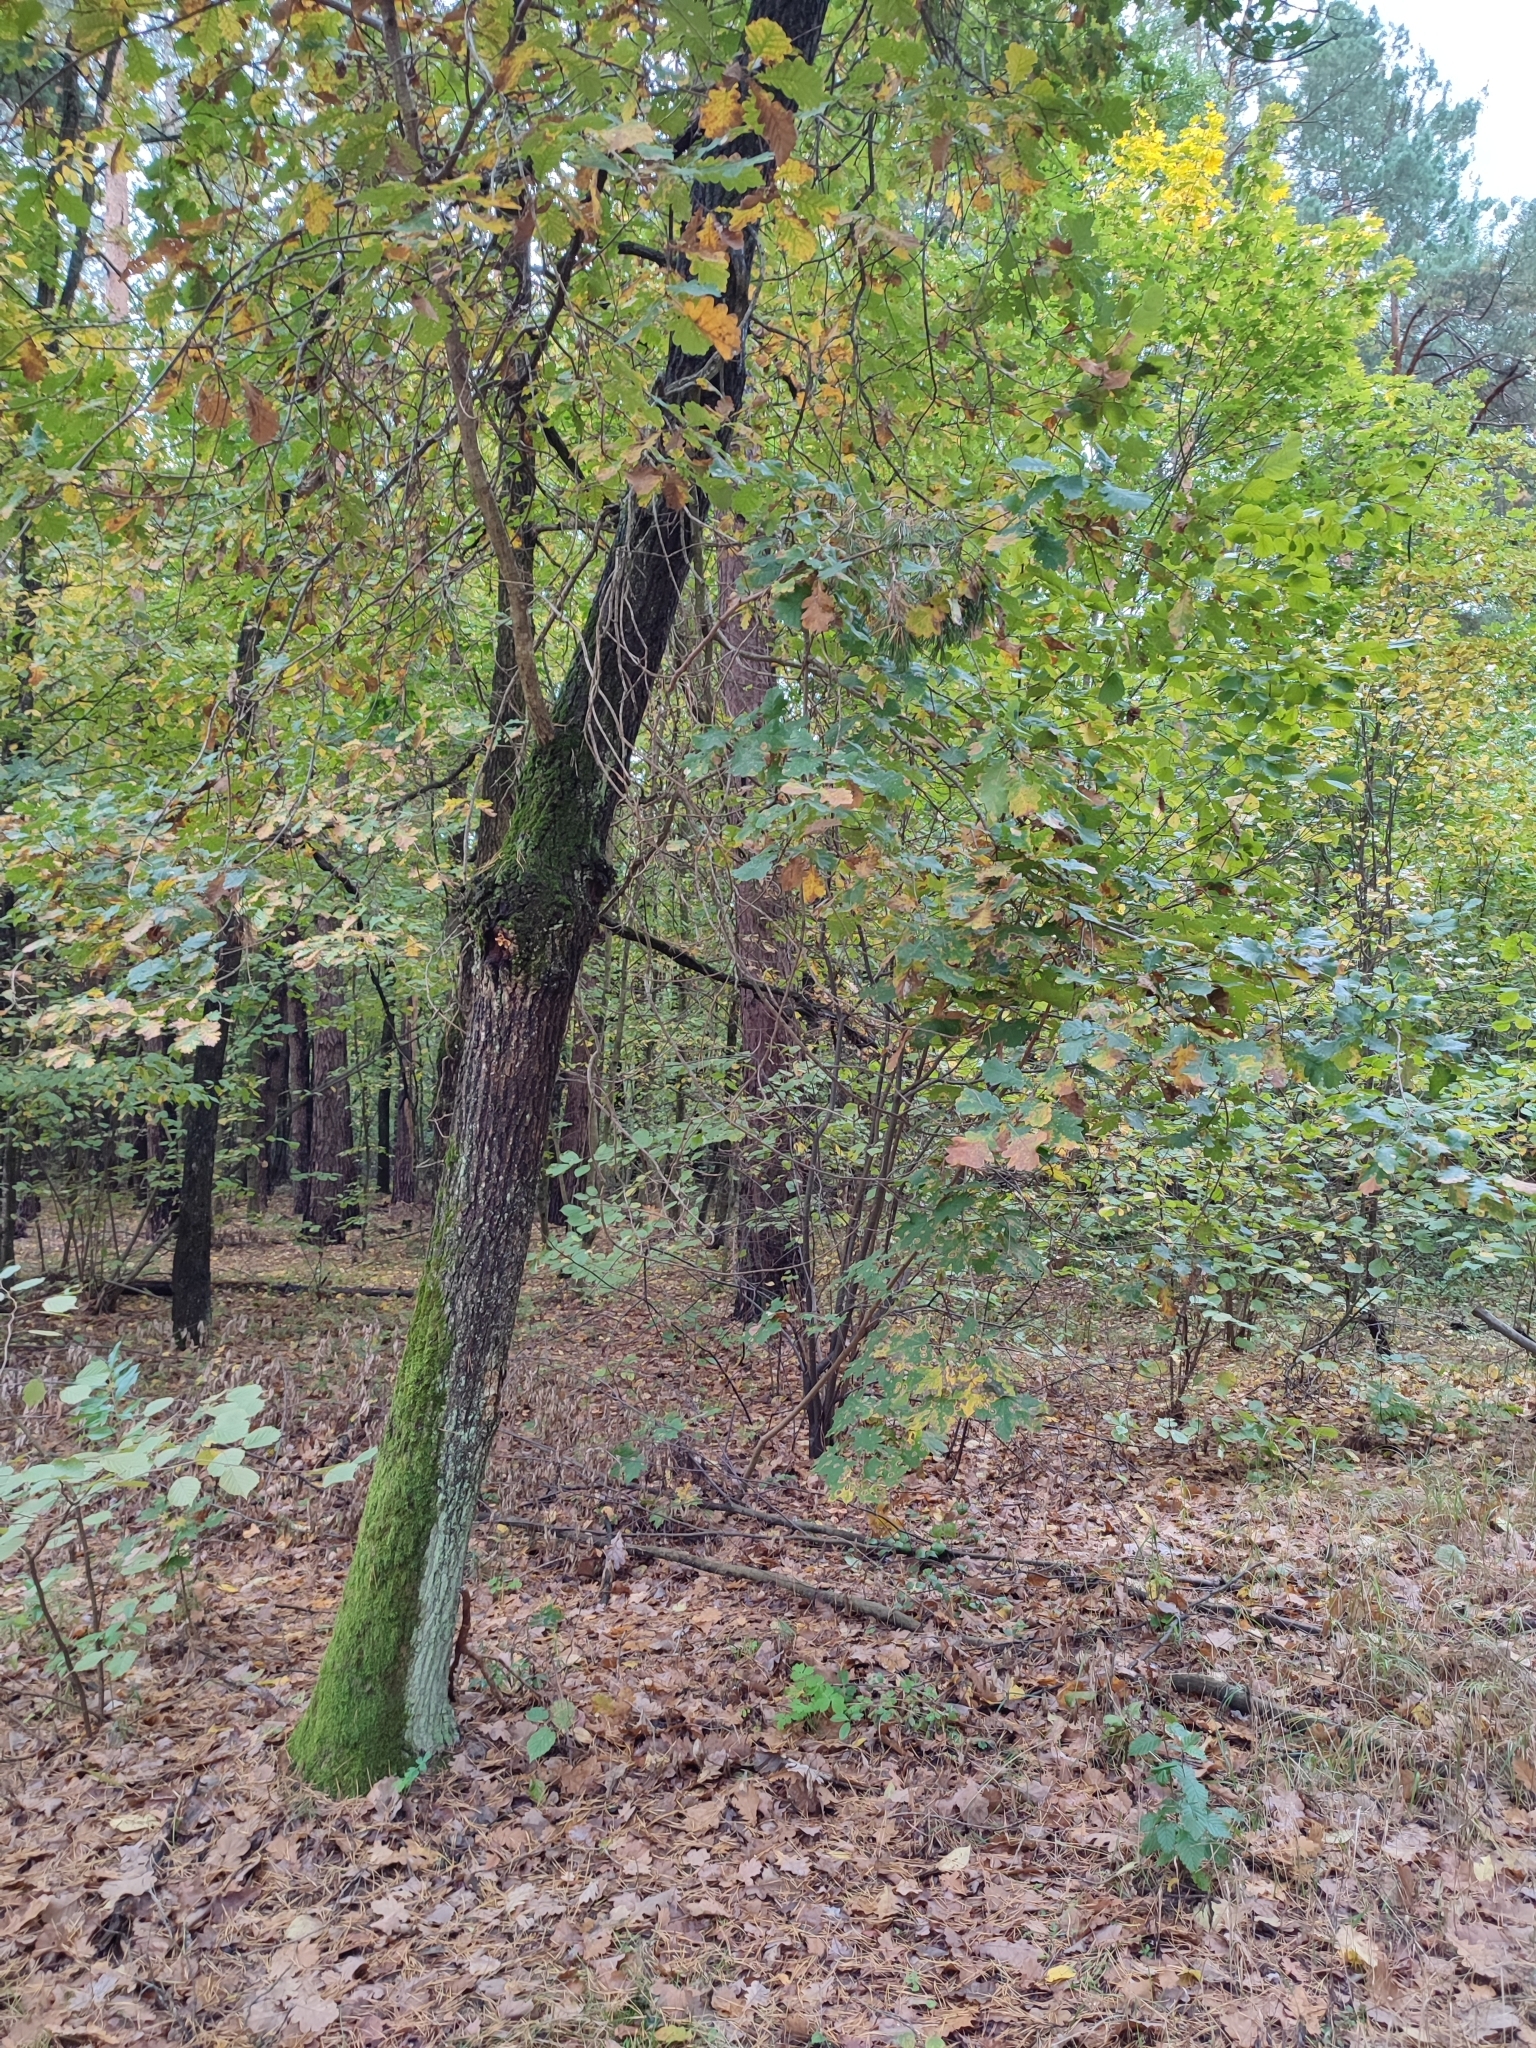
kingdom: Plantae
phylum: Tracheophyta
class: Magnoliopsida
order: Fagales
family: Fagaceae
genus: Quercus
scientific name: Quercus robur
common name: Pedunculate oak
